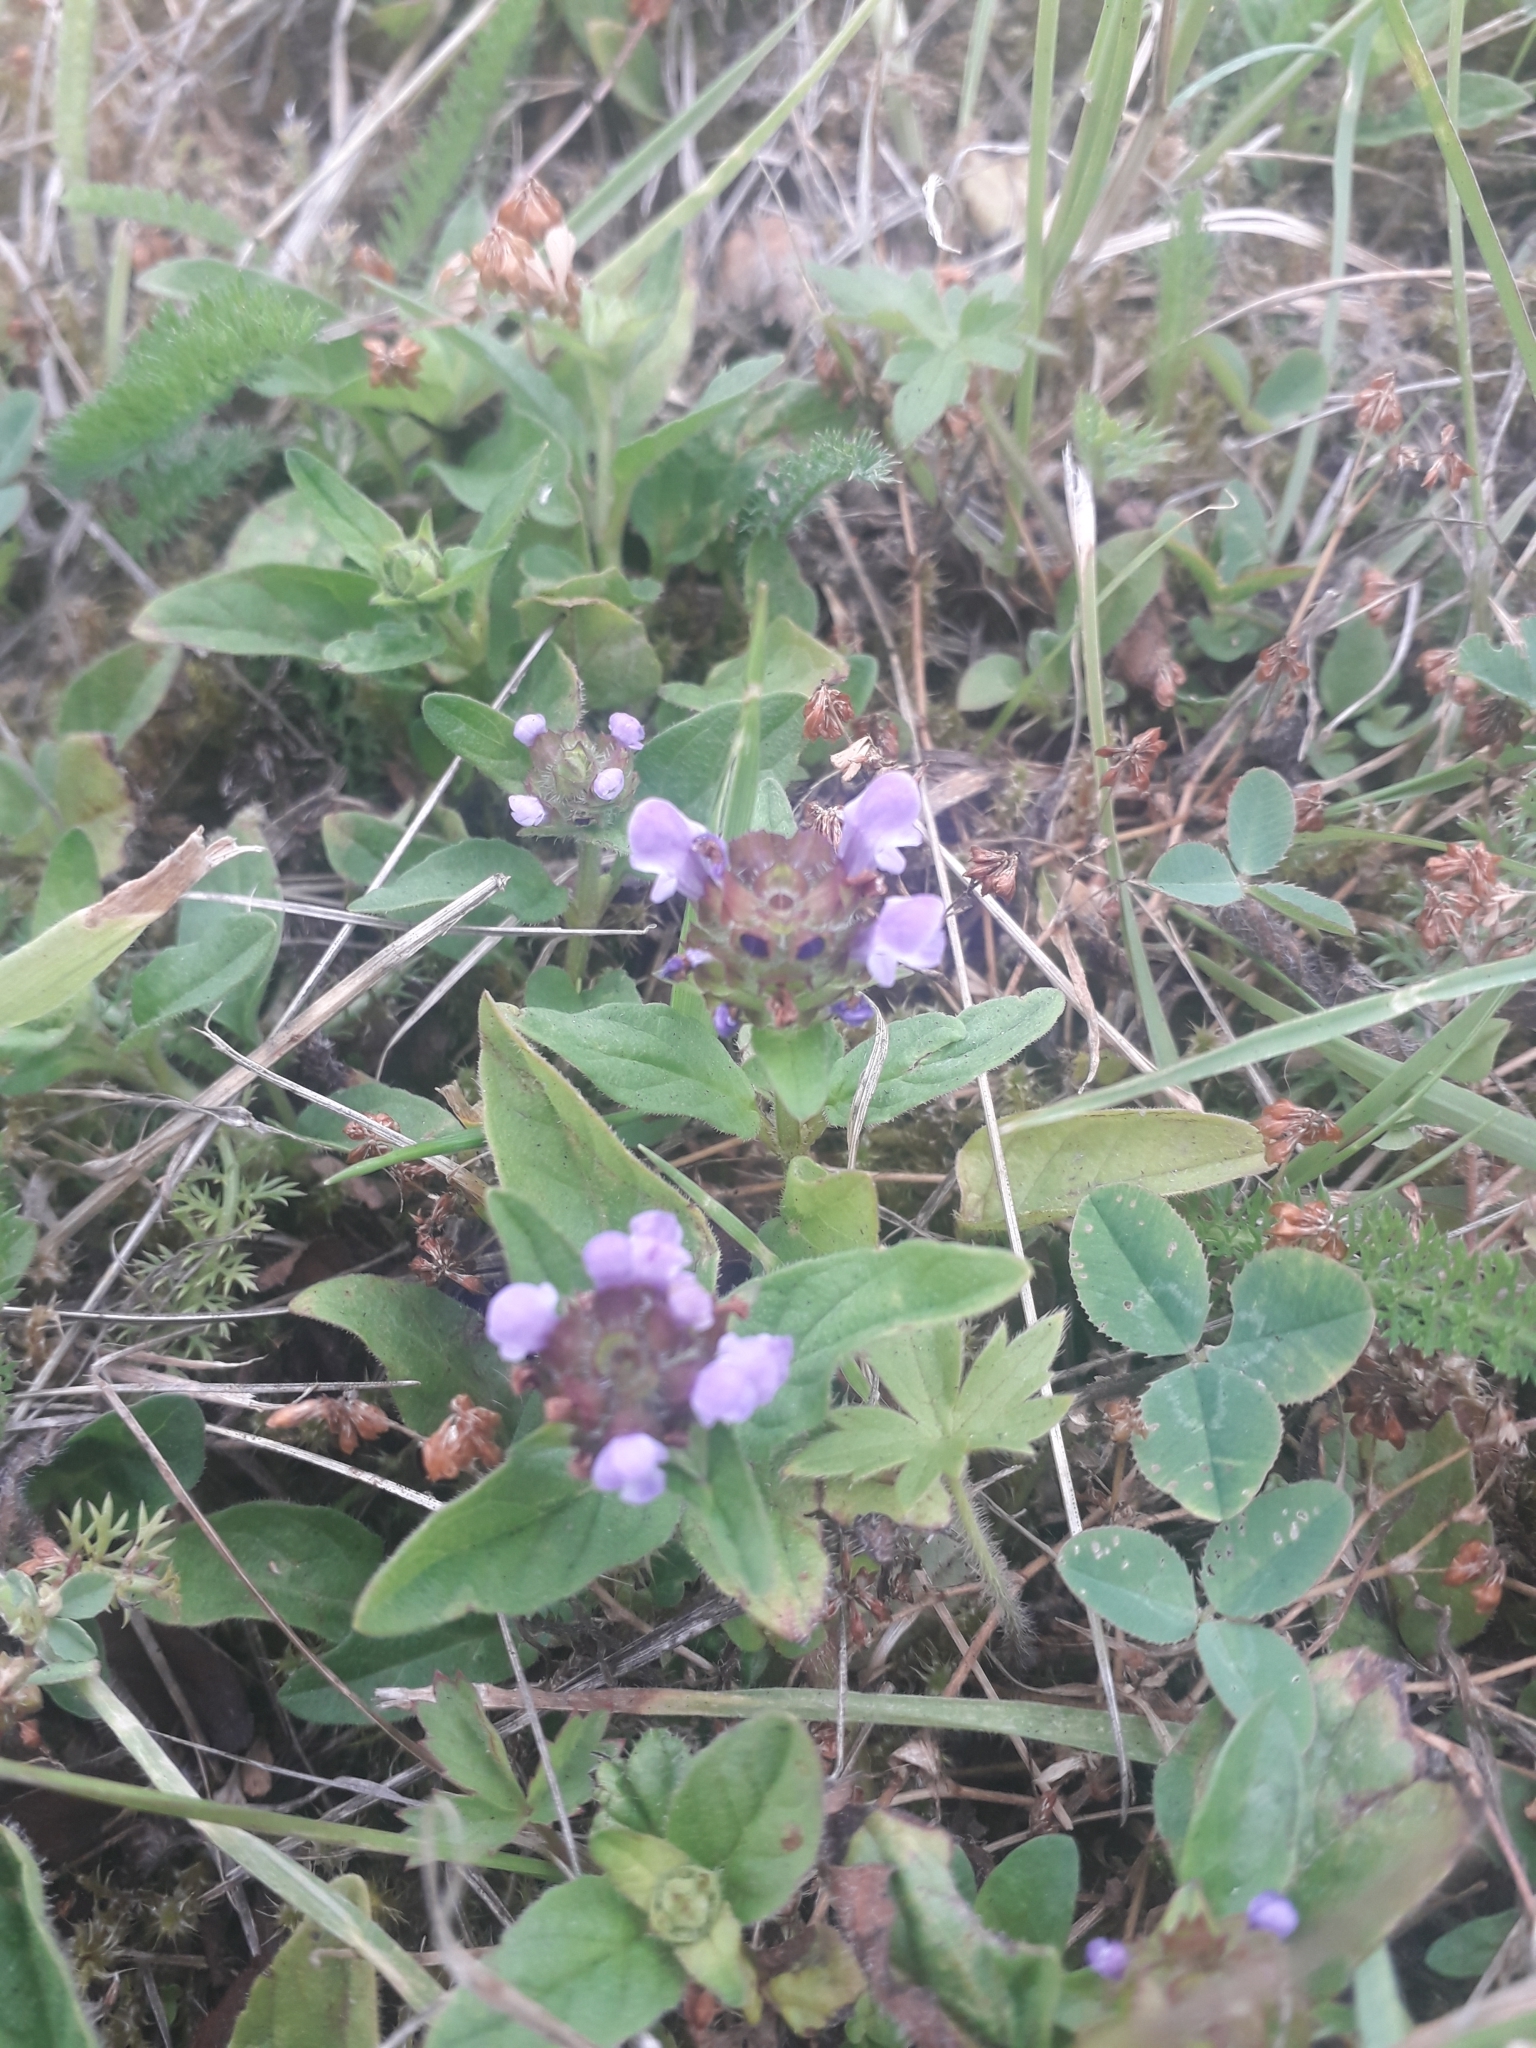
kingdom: Plantae
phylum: Tracheophyta
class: Magnoliopsida
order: Lamiales
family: Lamiaceae
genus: Prunella
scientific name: Prunella vulgaris
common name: Heal-all
